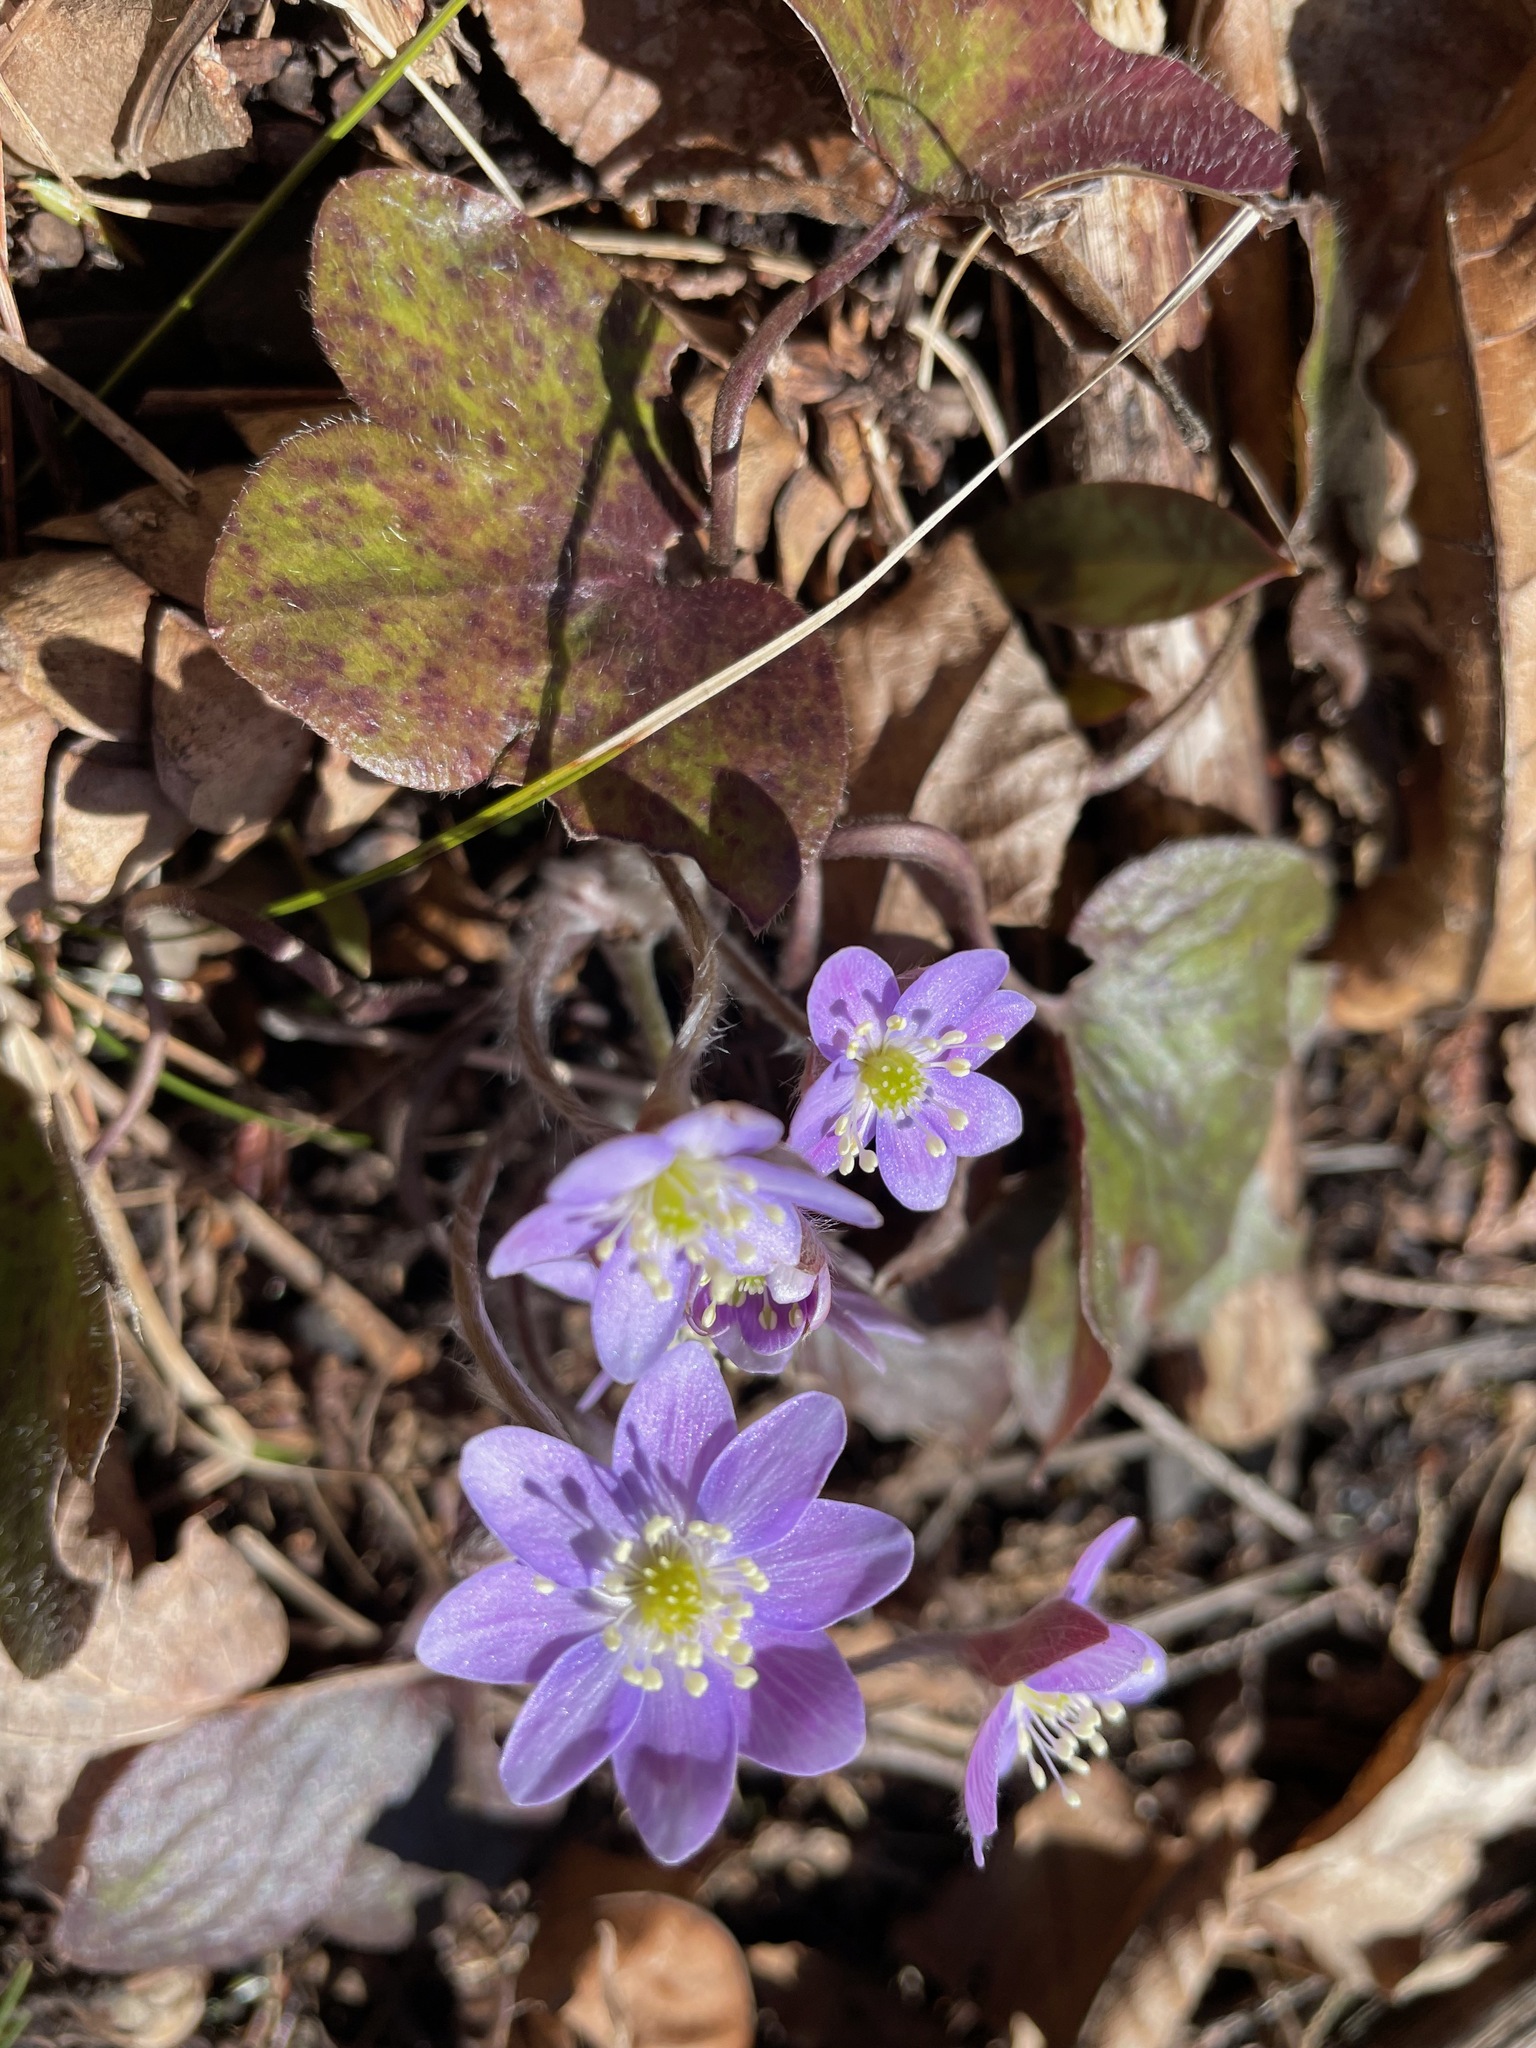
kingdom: Plantae
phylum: Tracheophyta
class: Magnoliopsida
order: Ranunculales
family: Ranunculaceae
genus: Hepatica
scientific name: Hepatica americana
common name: American hepatica
